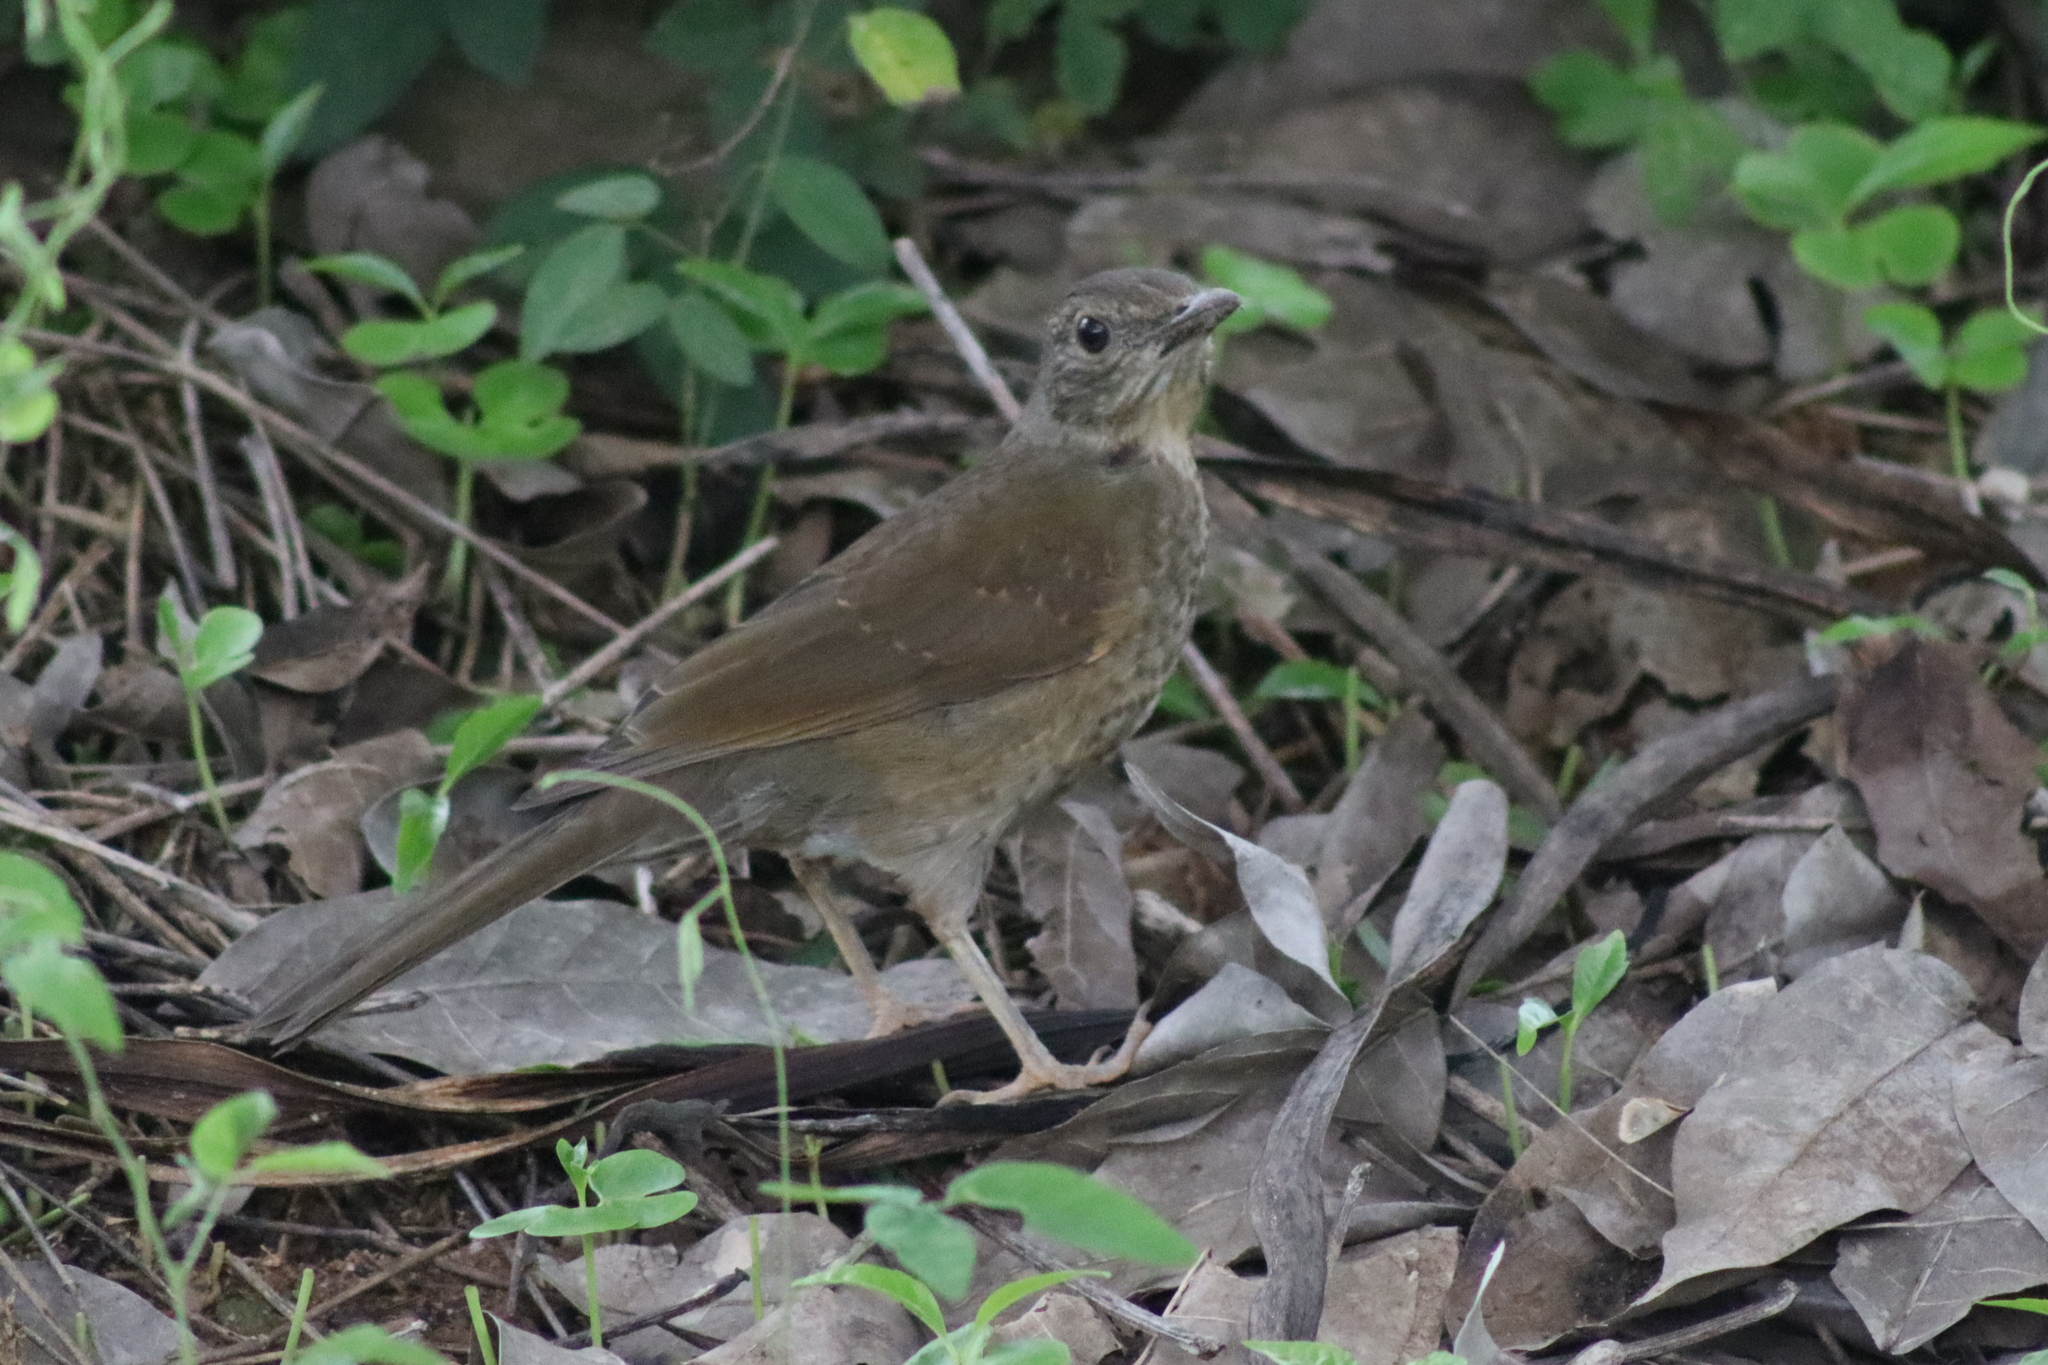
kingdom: Animalia
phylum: Chordata
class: Aves
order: Passeriformes
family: Turdidae
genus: Turdus
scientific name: Turdus leucomelas
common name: Pale-breasted thrush
